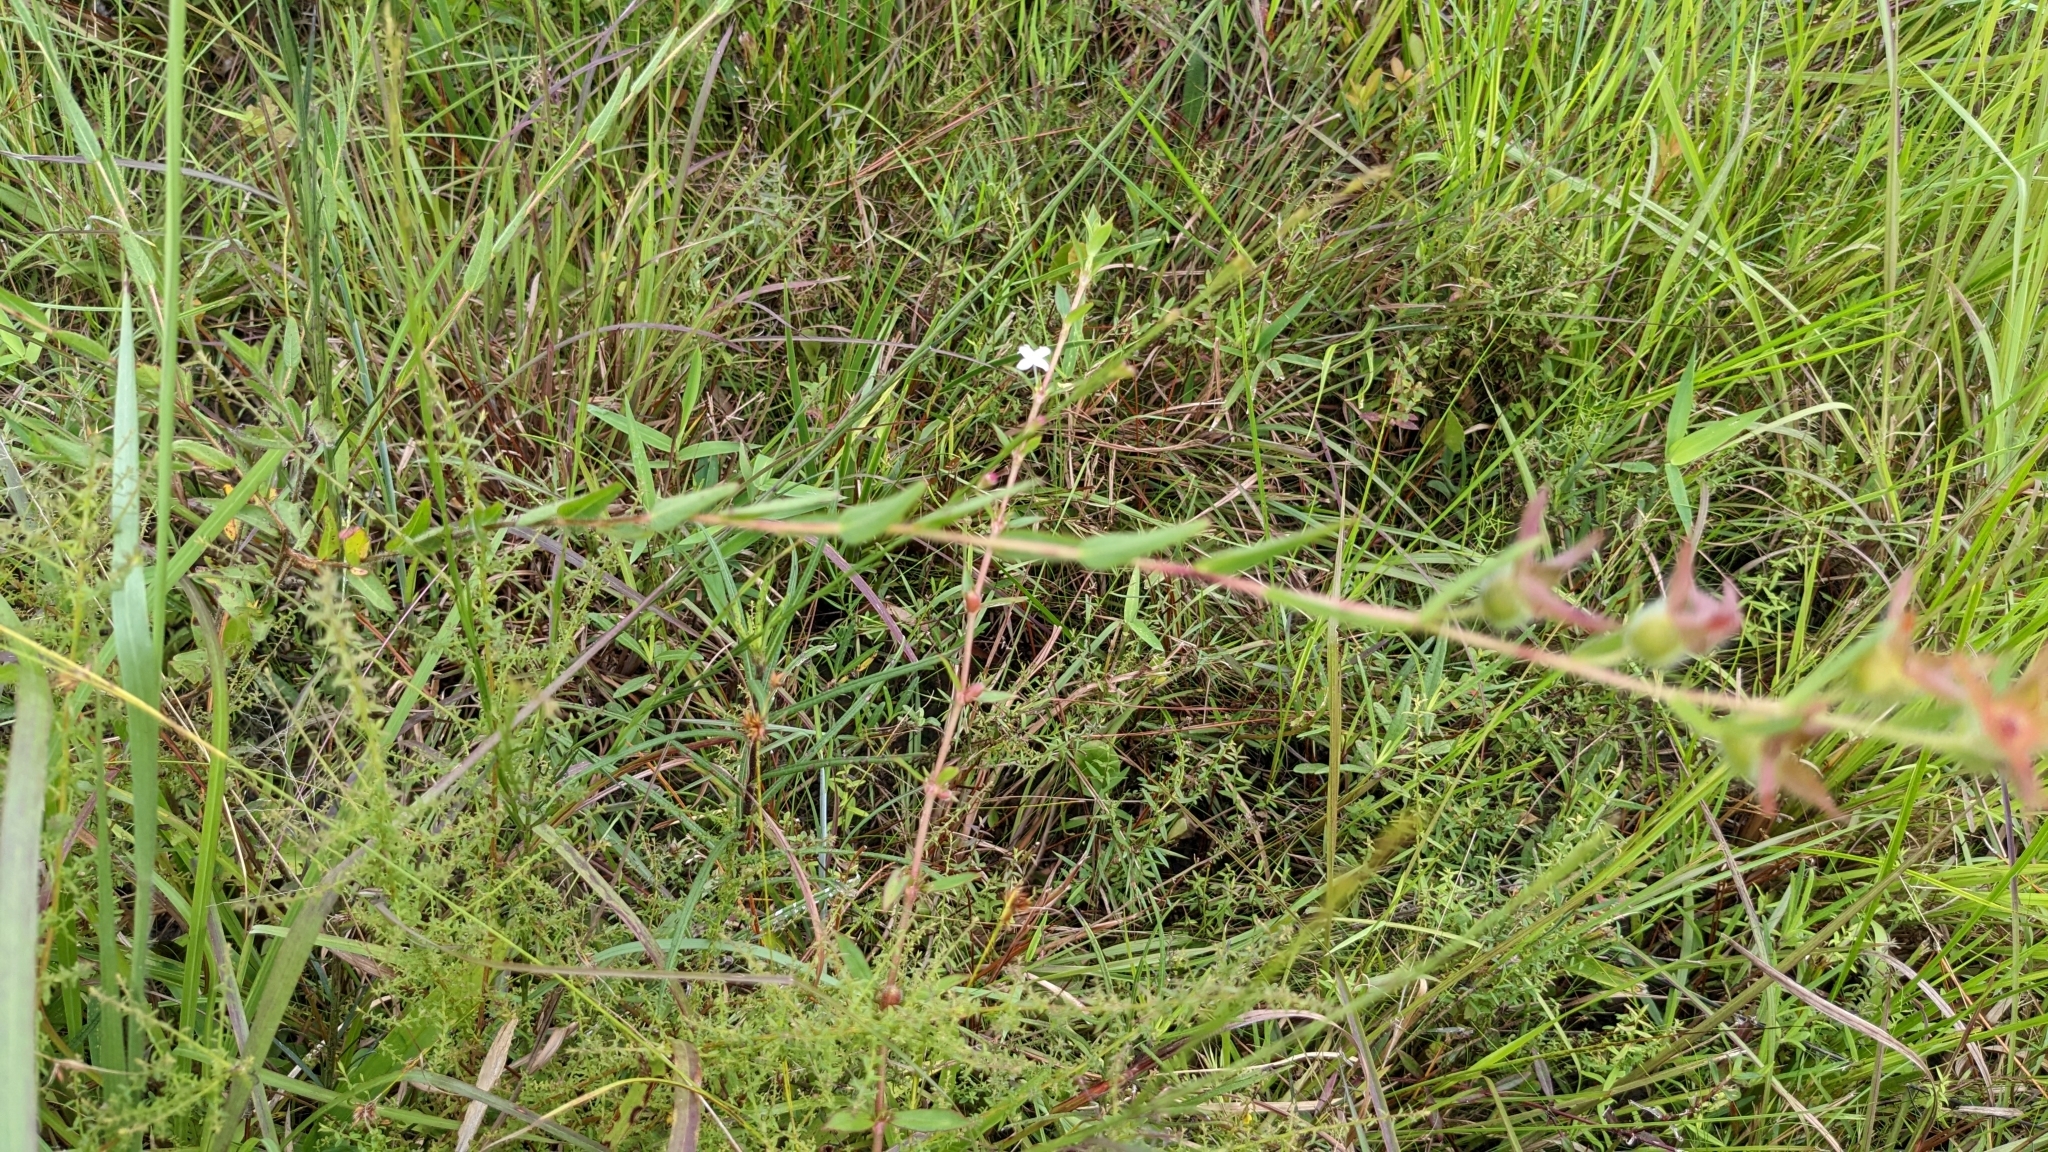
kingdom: Plantae
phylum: Tracheophyta
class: Magnoliopsida
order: Myrtales
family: Onagraceae
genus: Ludwigia
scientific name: Ludwigia hirtella
